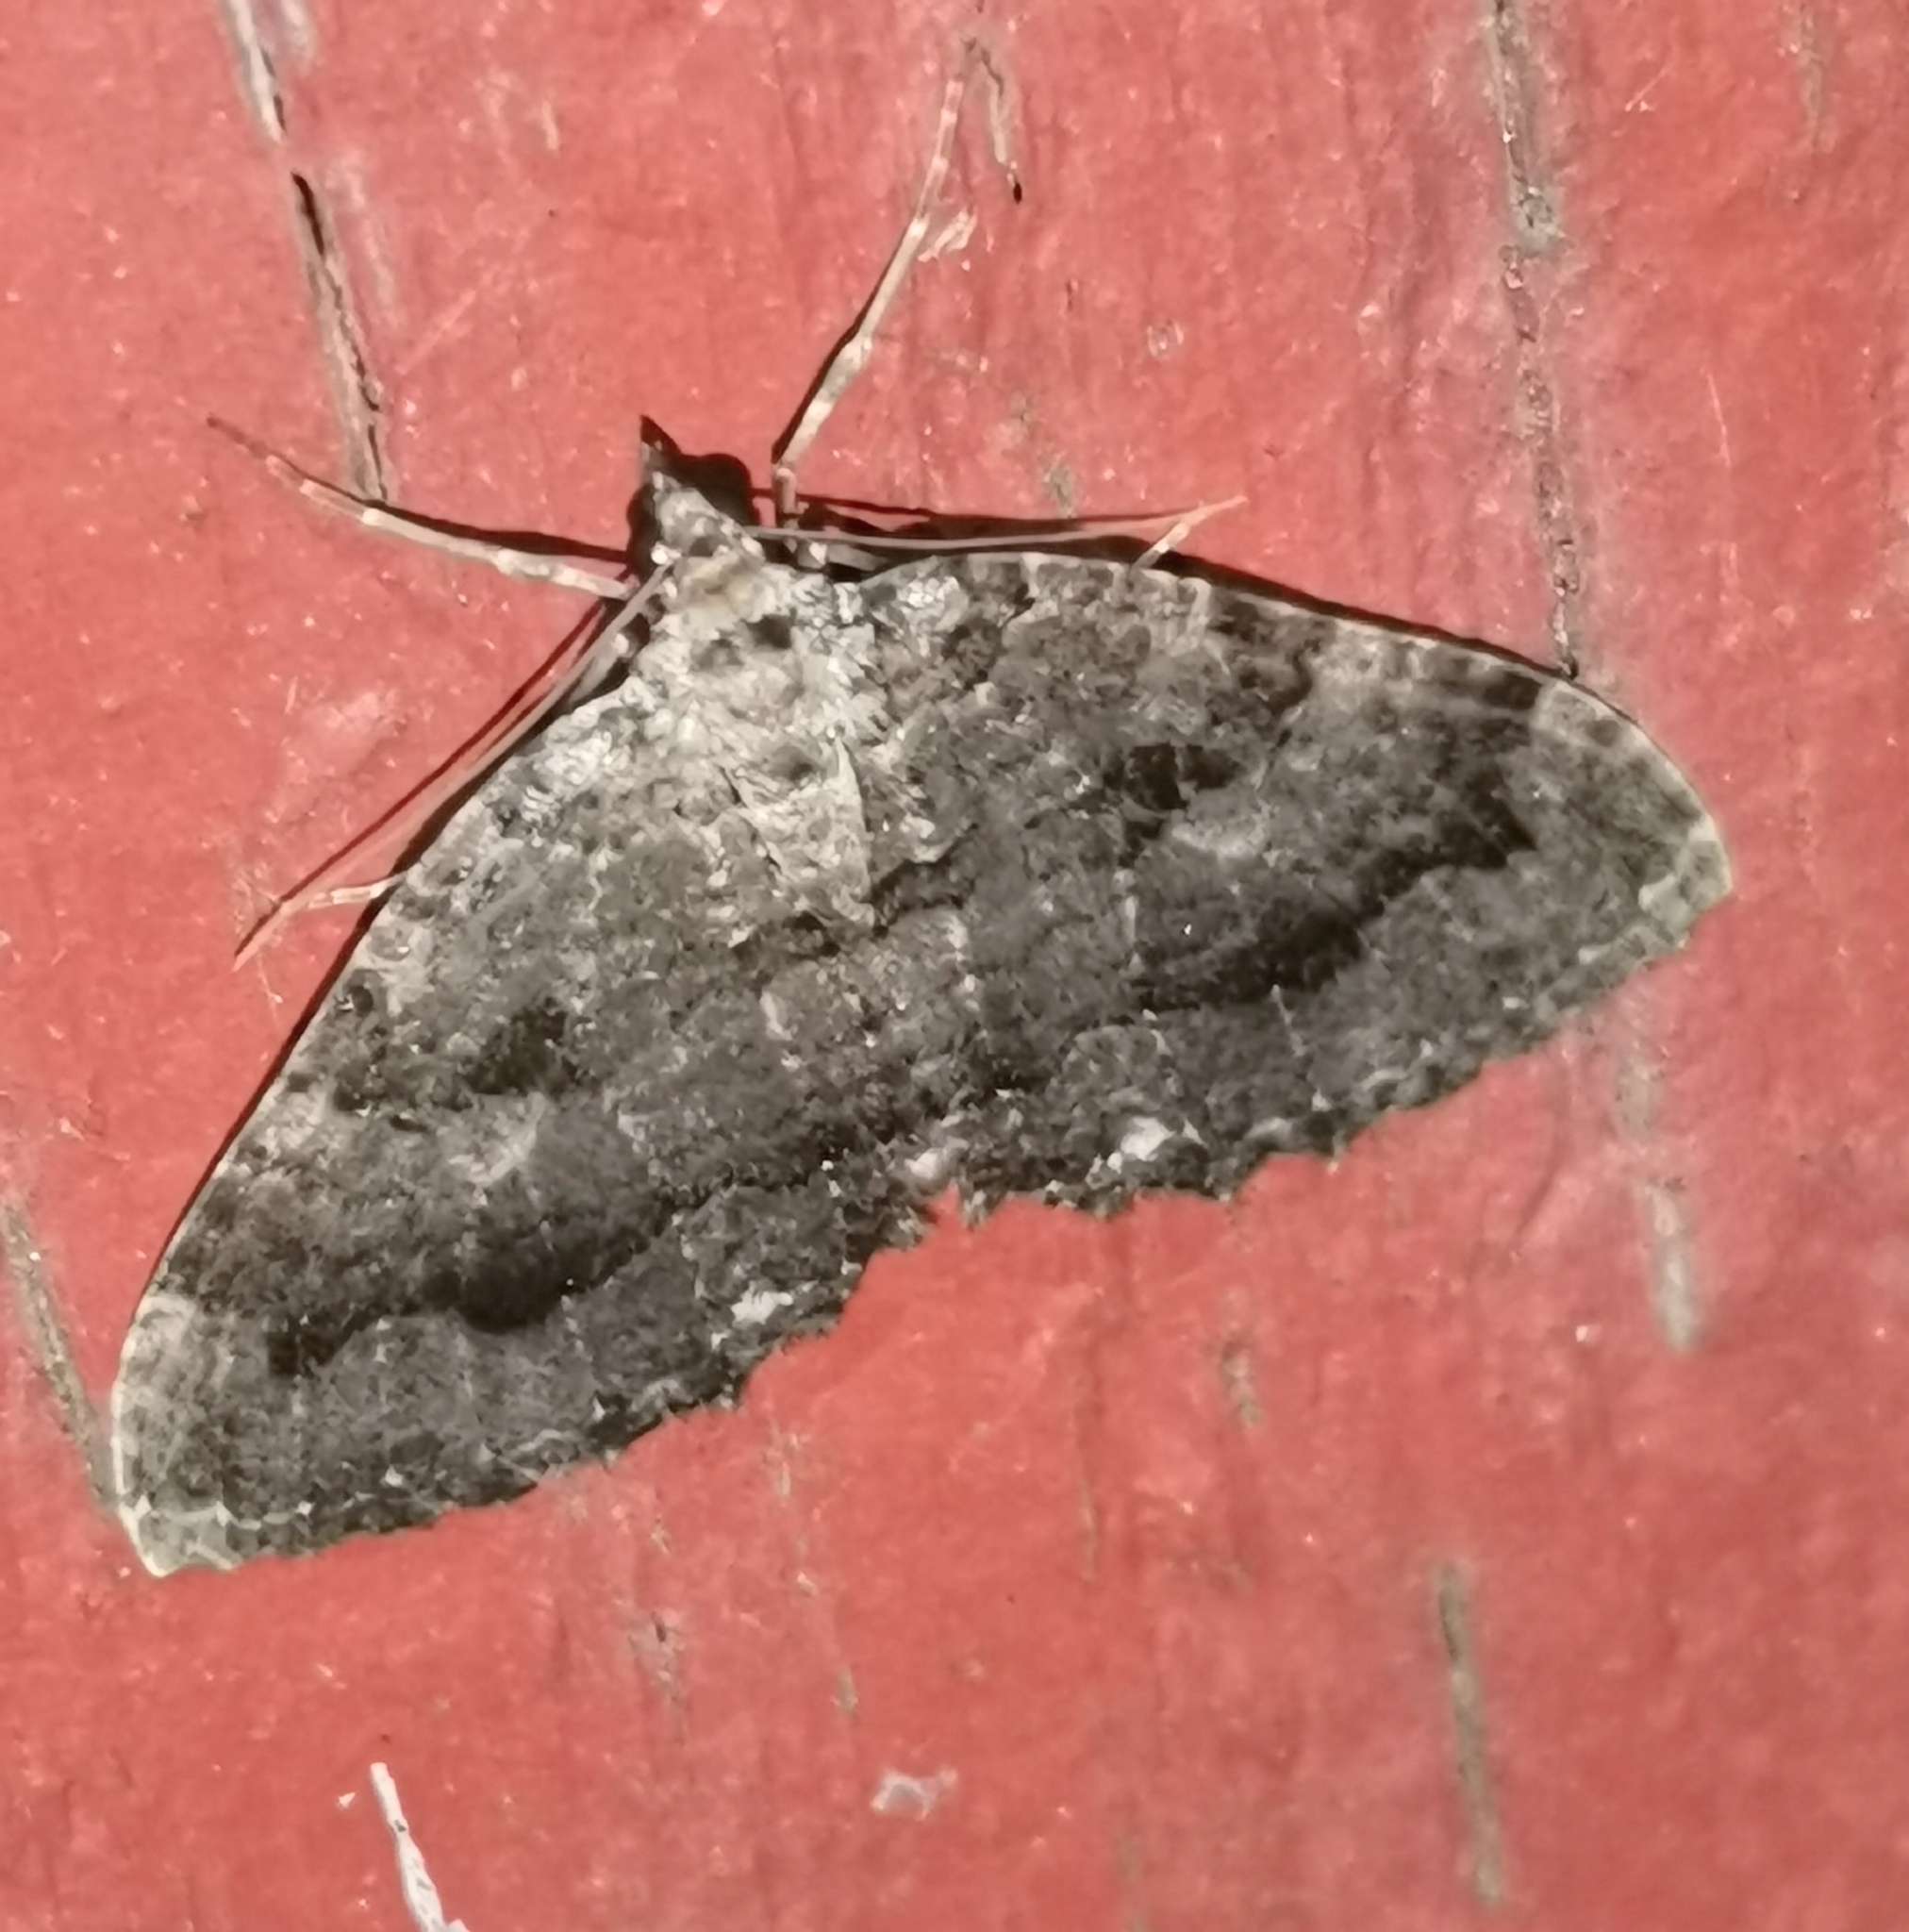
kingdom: Animalia
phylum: Arthropoda
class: Insecta
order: Lepidoptera
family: Geometridae
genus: Triphosa
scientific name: Triphosa dubitata
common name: Tissue
